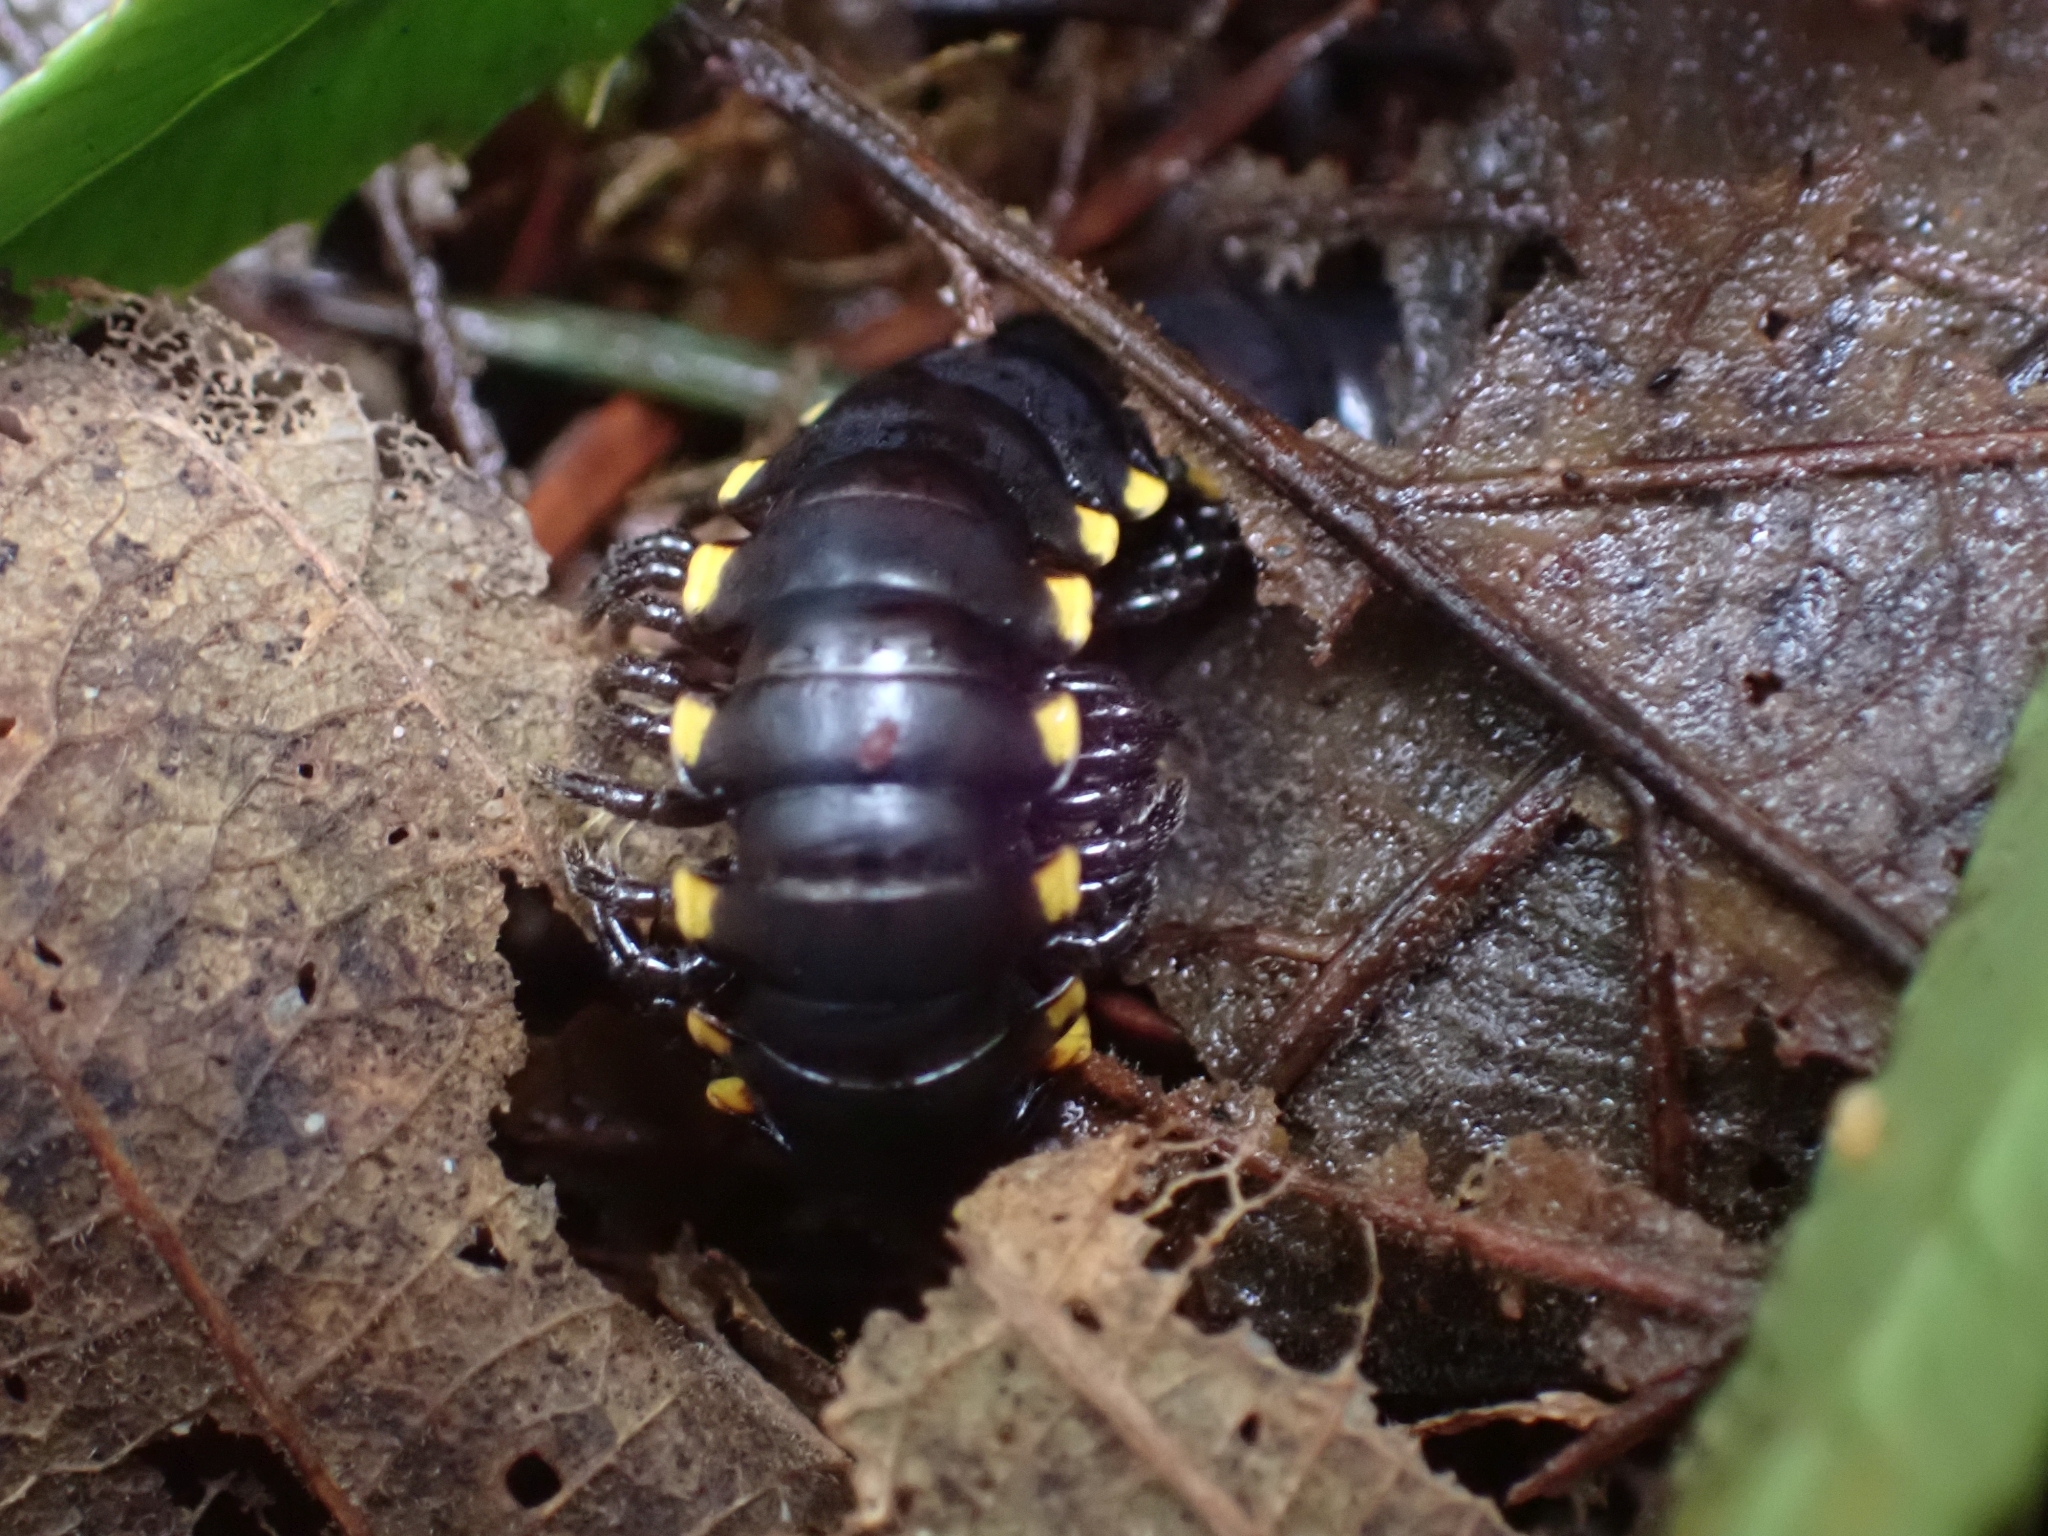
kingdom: Animalia
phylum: Arthropoda
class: Diplopoda
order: Polydesmida
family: Xystodesmidae
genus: Harpaphe
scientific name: Harpaphe haydeniana
